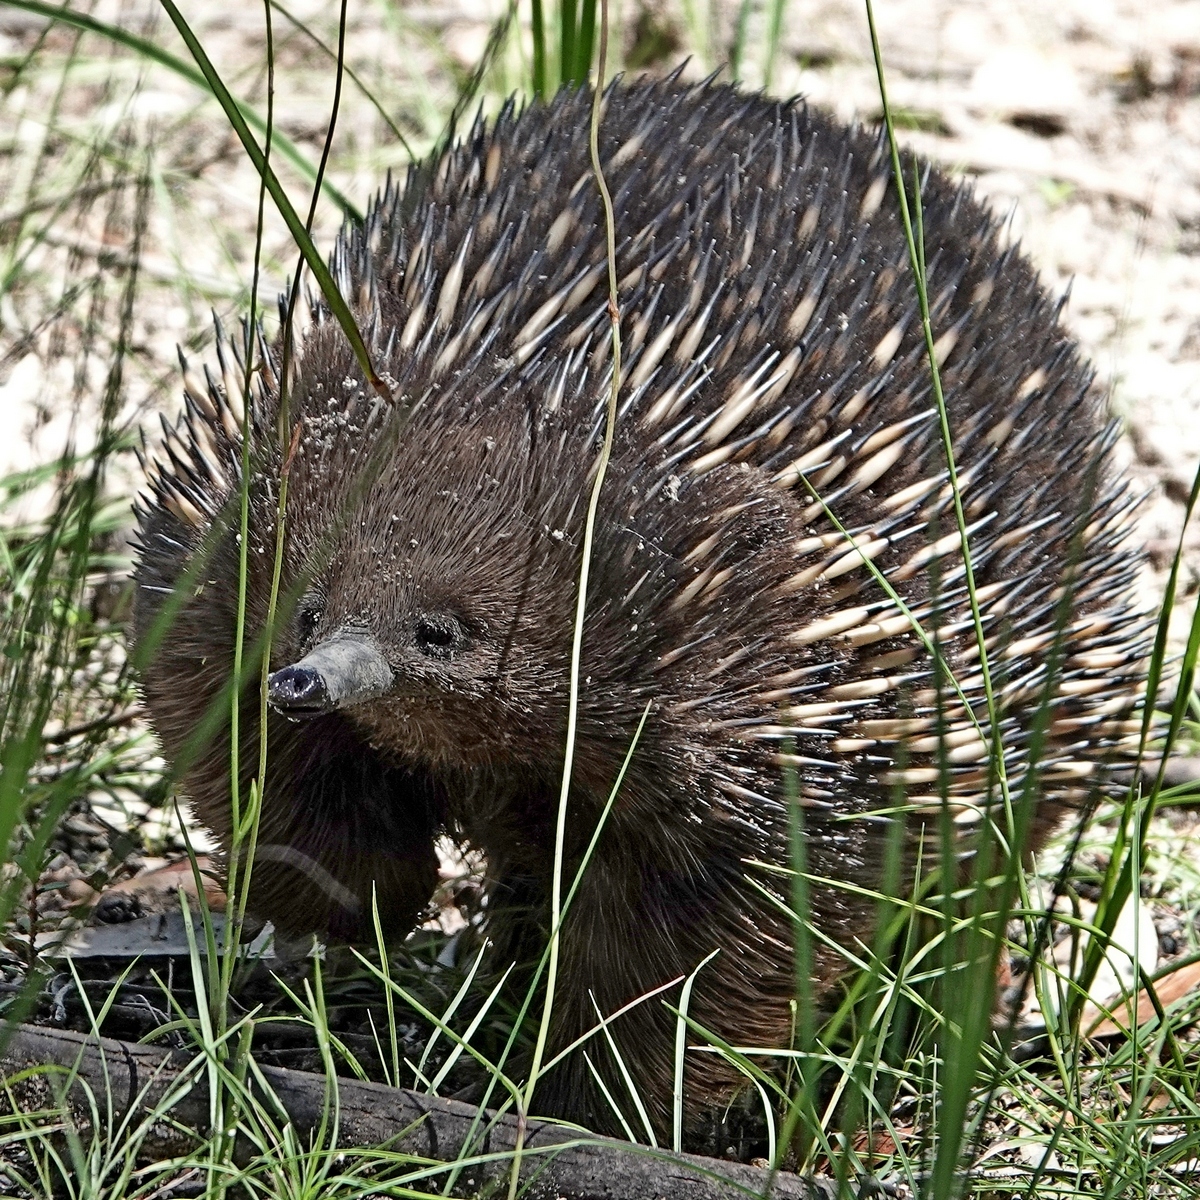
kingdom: Animalia
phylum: Chordata
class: Mammalia
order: Monotremata
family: Tachyglossidae
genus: Tachyglossus
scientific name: Tachyglossus aculeatus
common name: Short-beaked echidna
